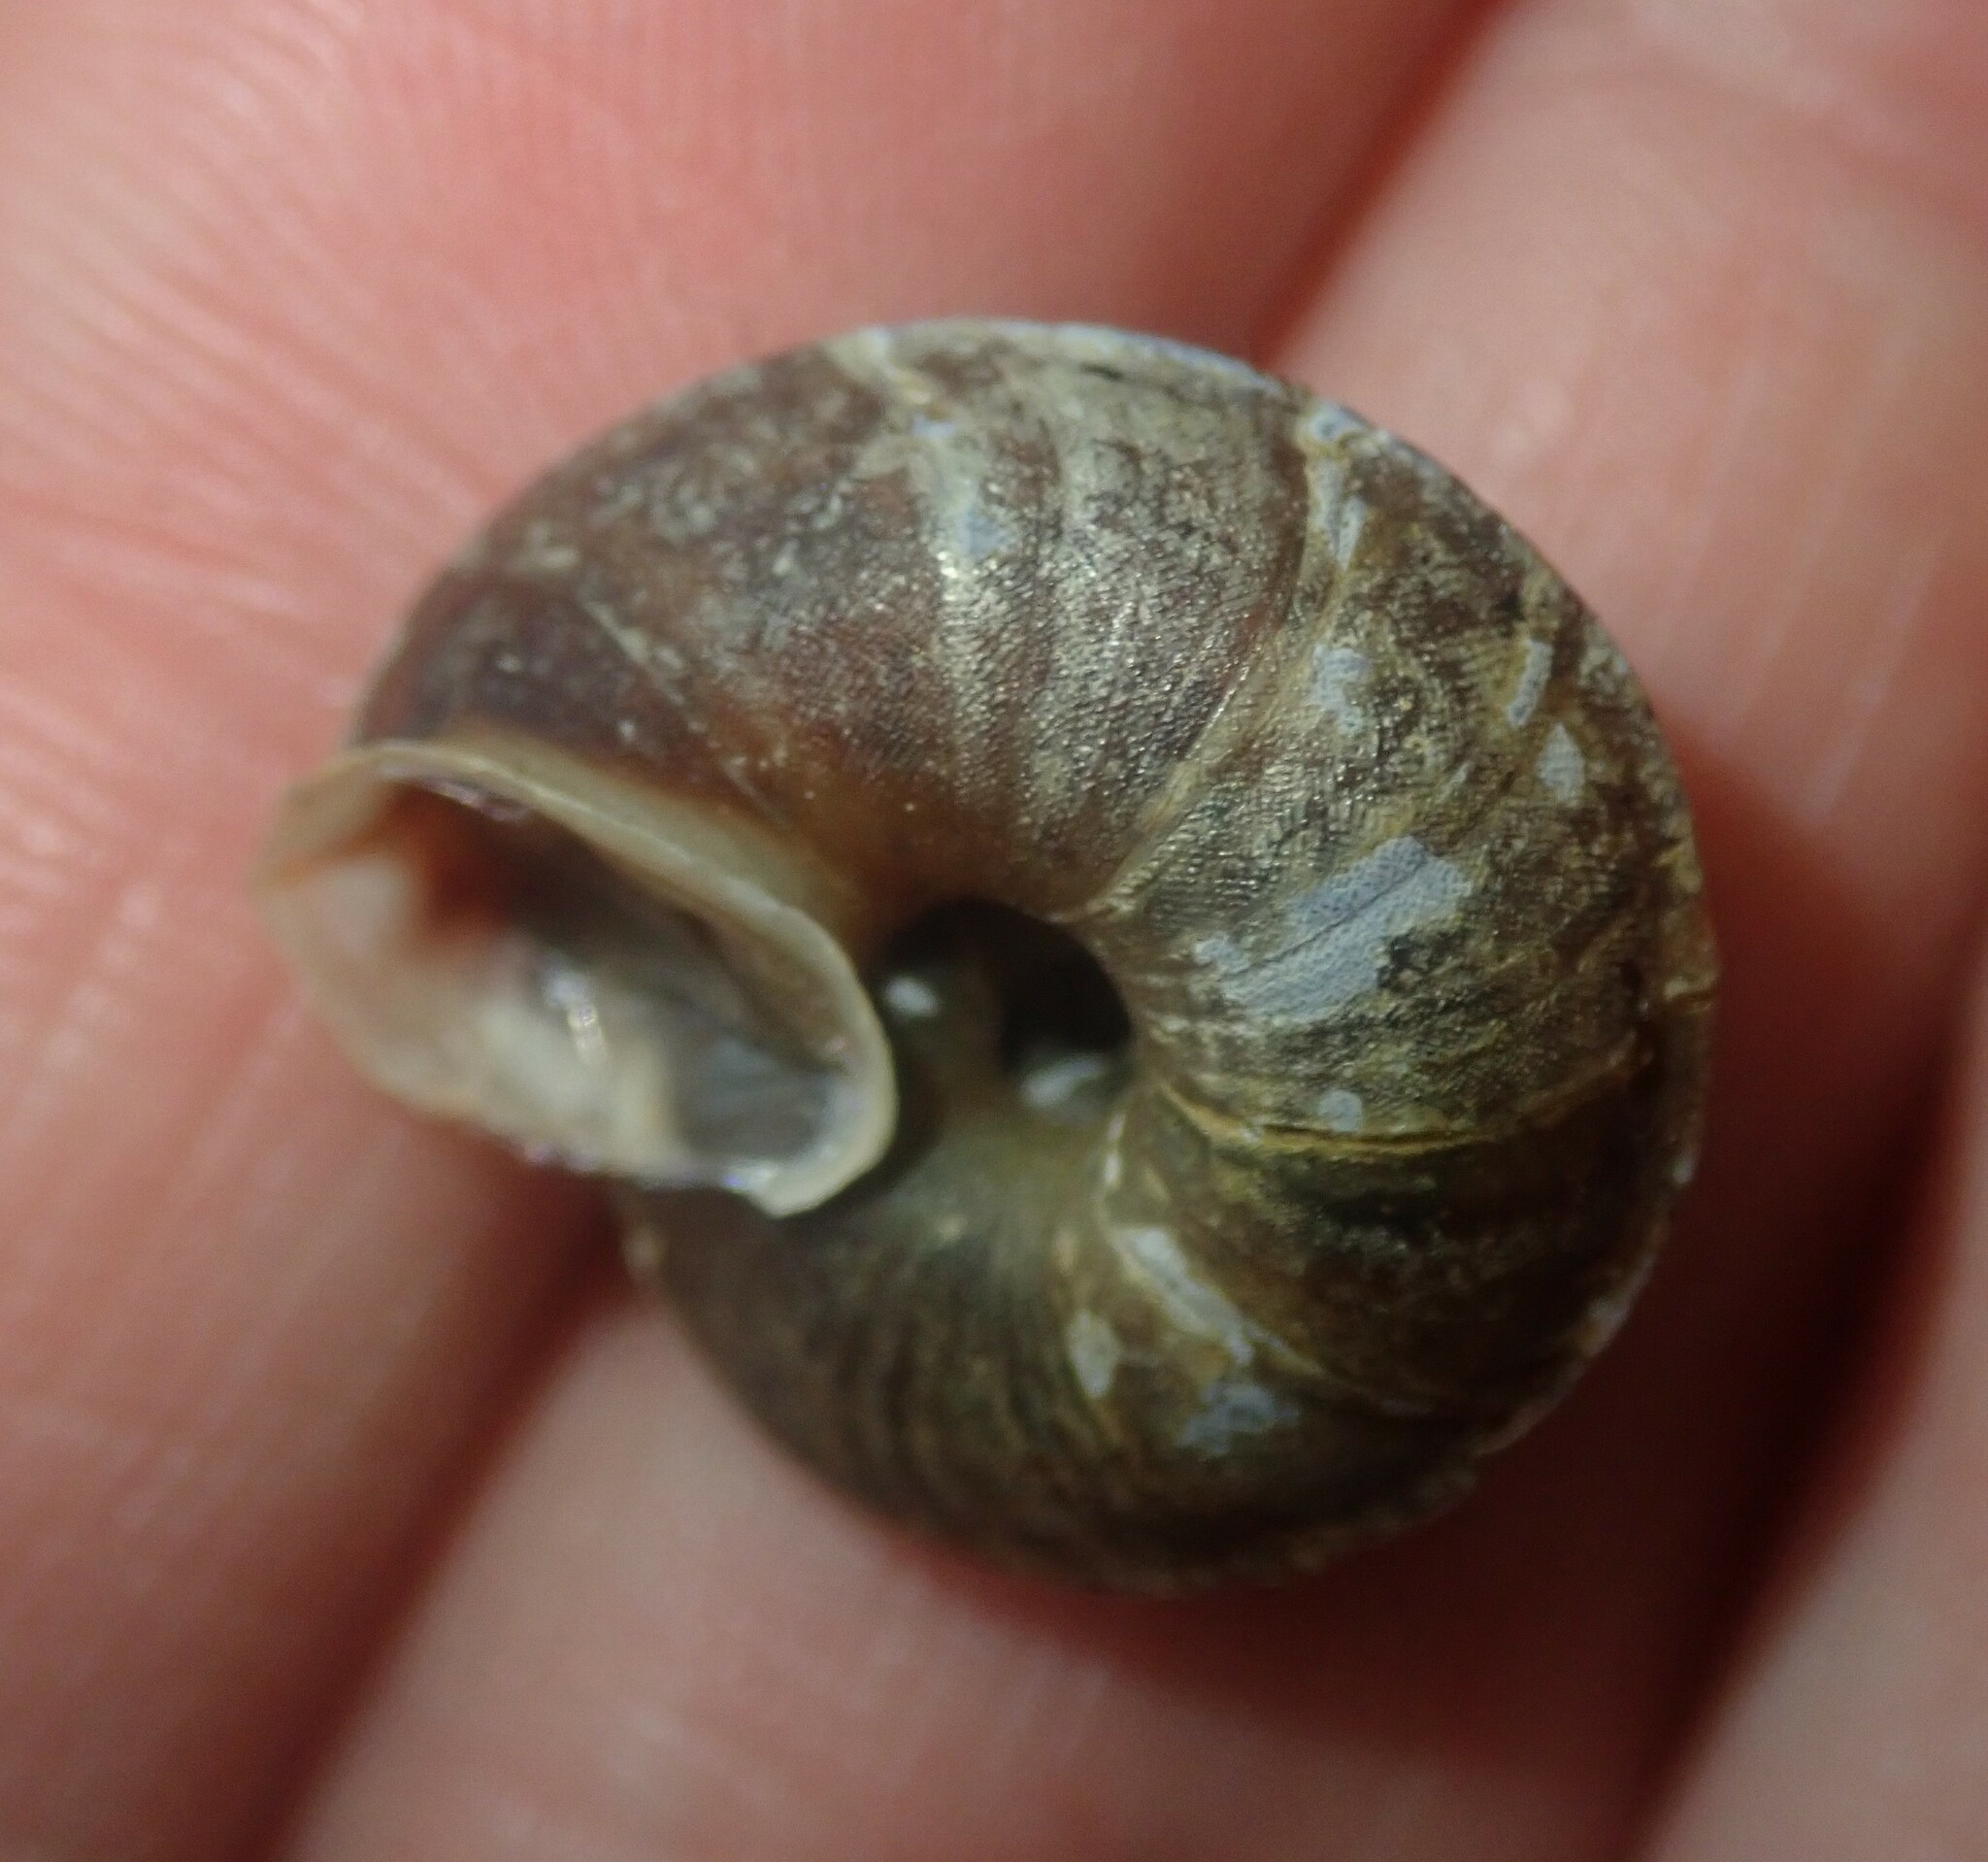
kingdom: Animalia
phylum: Mollusca
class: Gastropoda
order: Stylommatophora
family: Helicidae
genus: Helicigona
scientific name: Helicigona lapicida
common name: Lapidary snail
